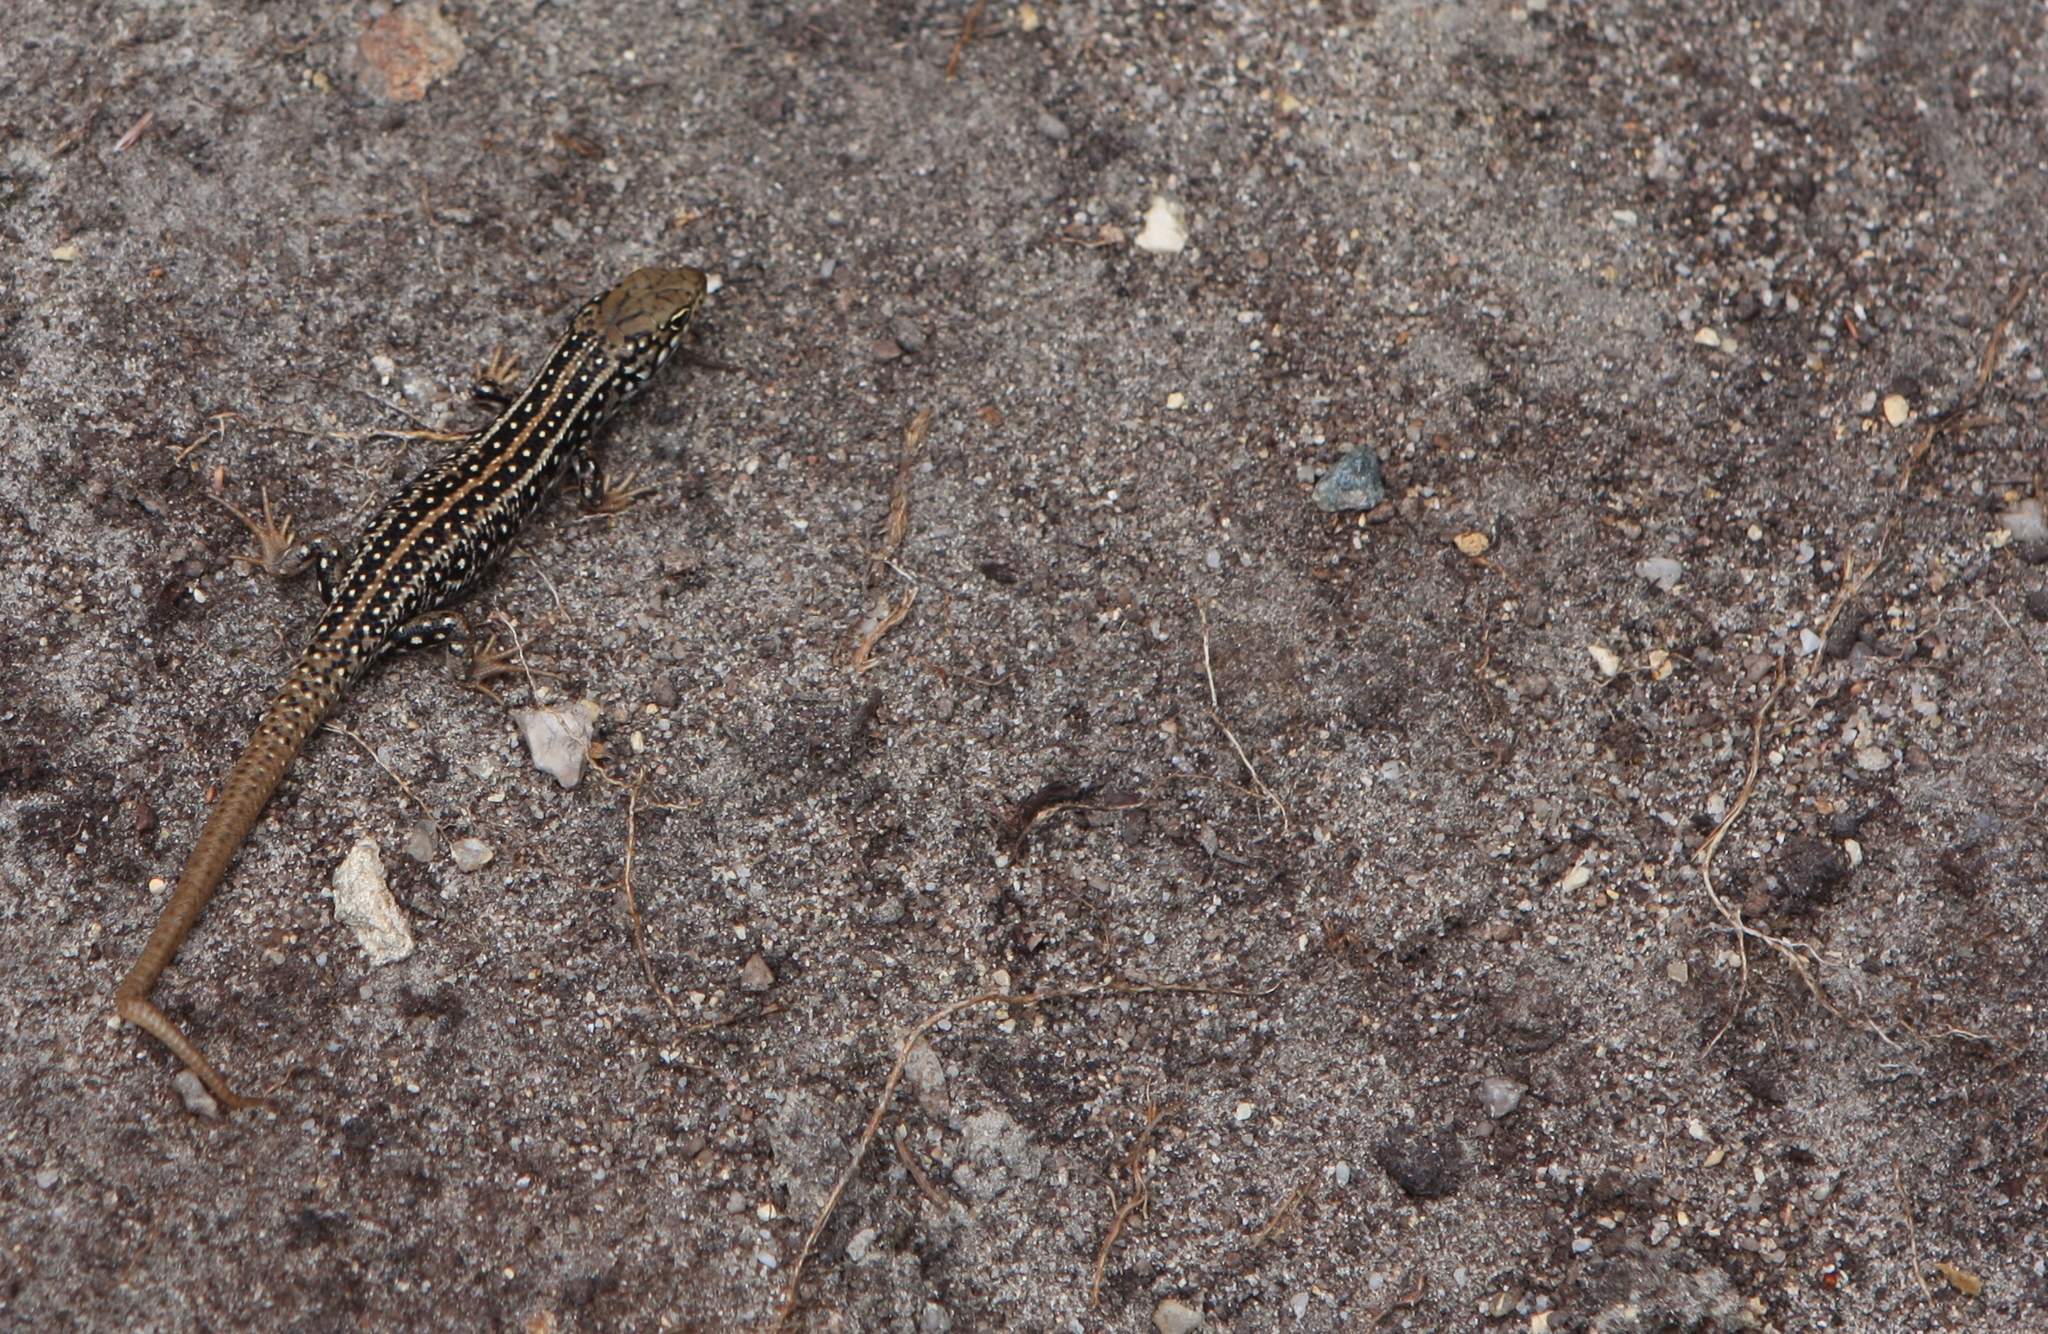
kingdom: Animalia
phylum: Chordata
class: Squamata
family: Scincidae
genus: Liopholis
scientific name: Liopholis whitii
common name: White's rock-skink
